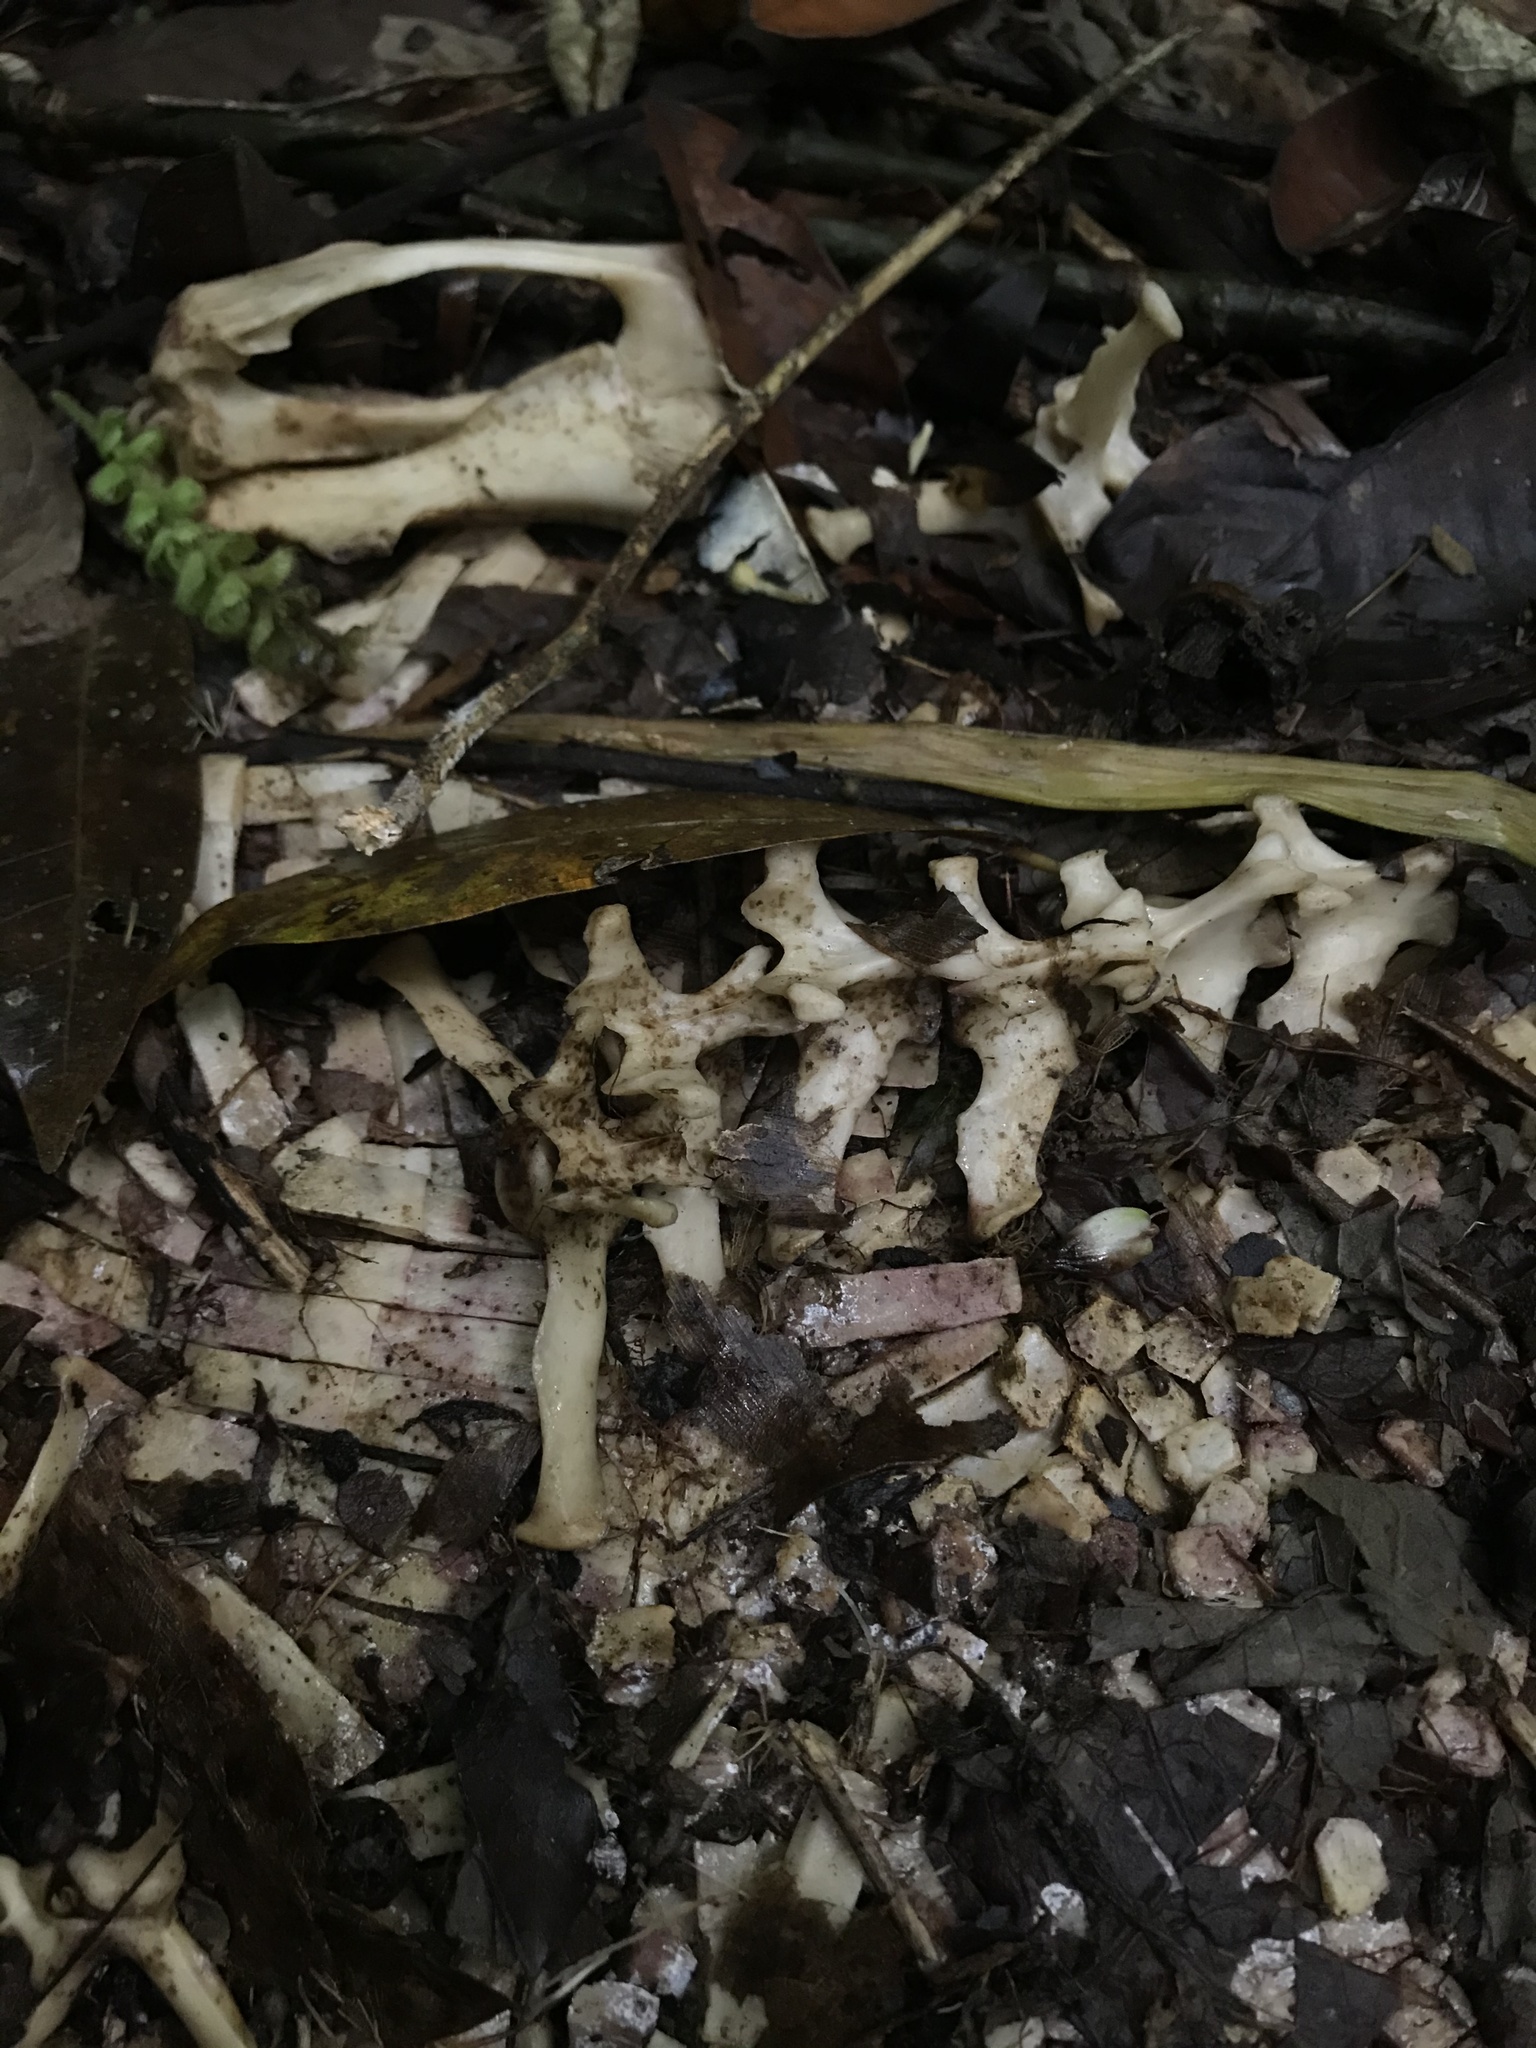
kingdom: Animalia
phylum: Chordata
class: Mammalia
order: Cingulata
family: Dasypodidae
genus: Dasypus
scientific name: Dasypus novemcinctus
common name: Nine-banded armadillo
